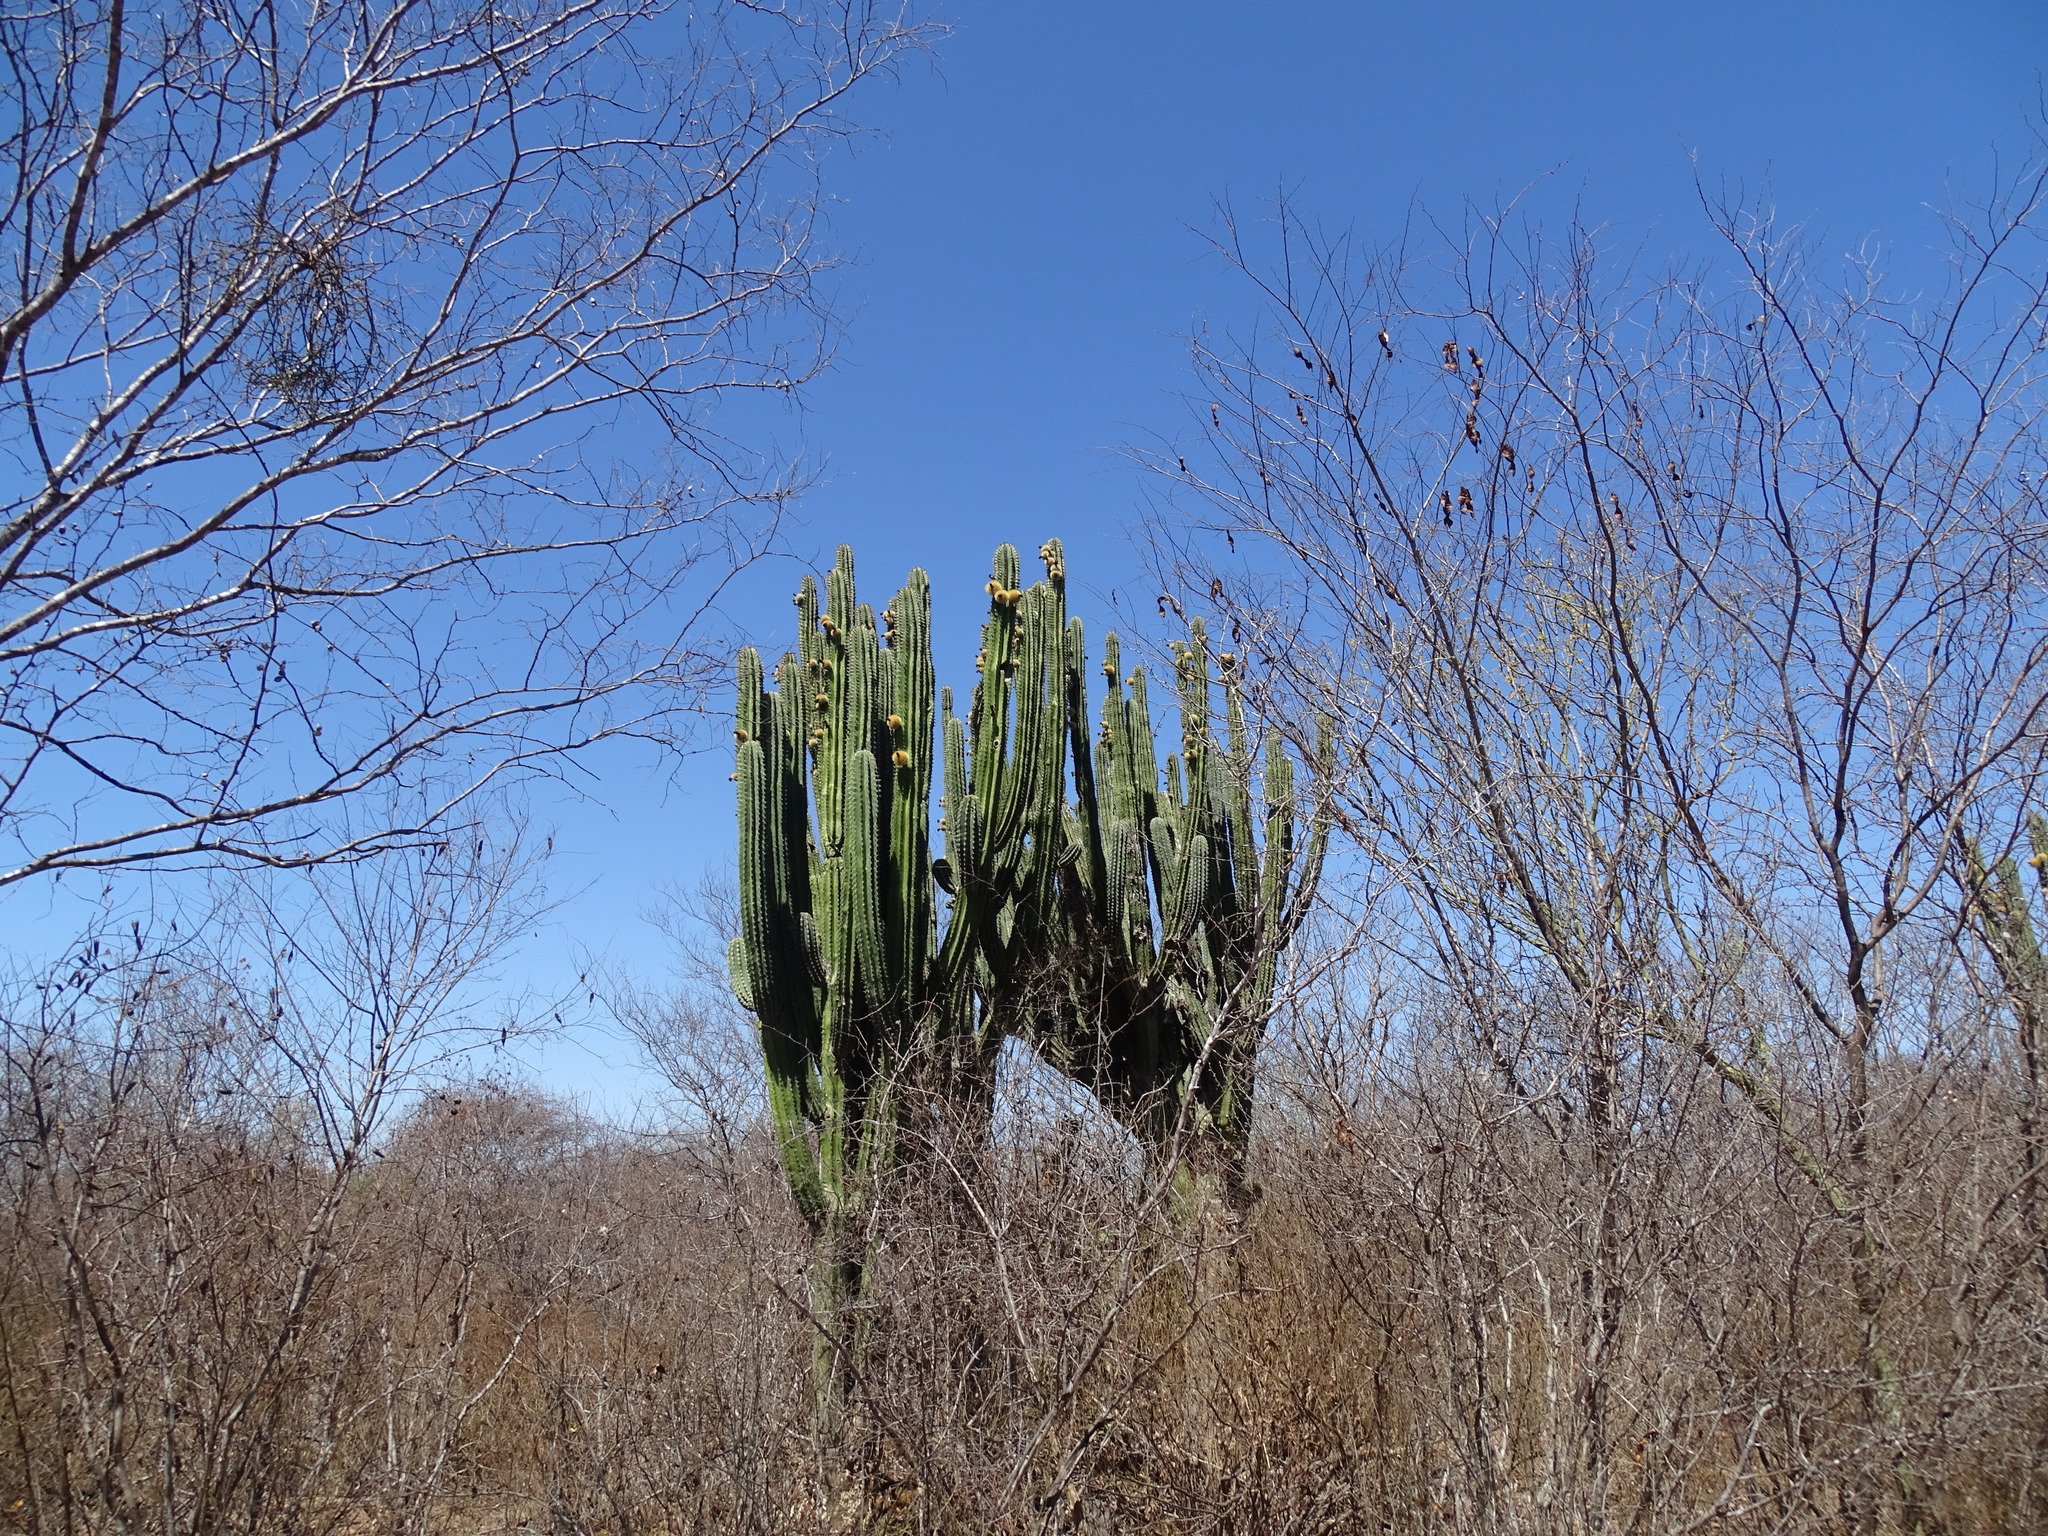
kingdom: Plantae
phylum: Tracheophyta
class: Magnoliopsida
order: Caryophyllales
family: Cactaceae
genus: Pachycereus
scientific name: Pachycereus pecten-aboriginum
